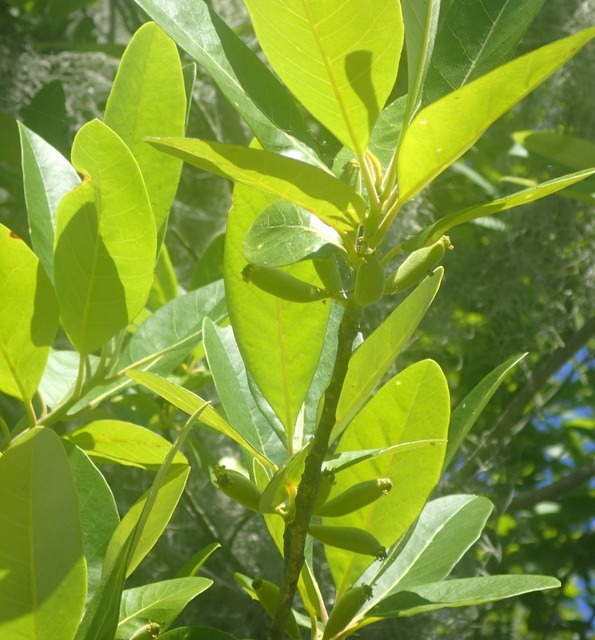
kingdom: Plantae
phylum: Tracheophyta
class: Magnoliopsida
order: Cornales
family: Nyssaceae
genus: Nyssa
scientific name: Nyssa ogeche
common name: Ogeechee tupelo
